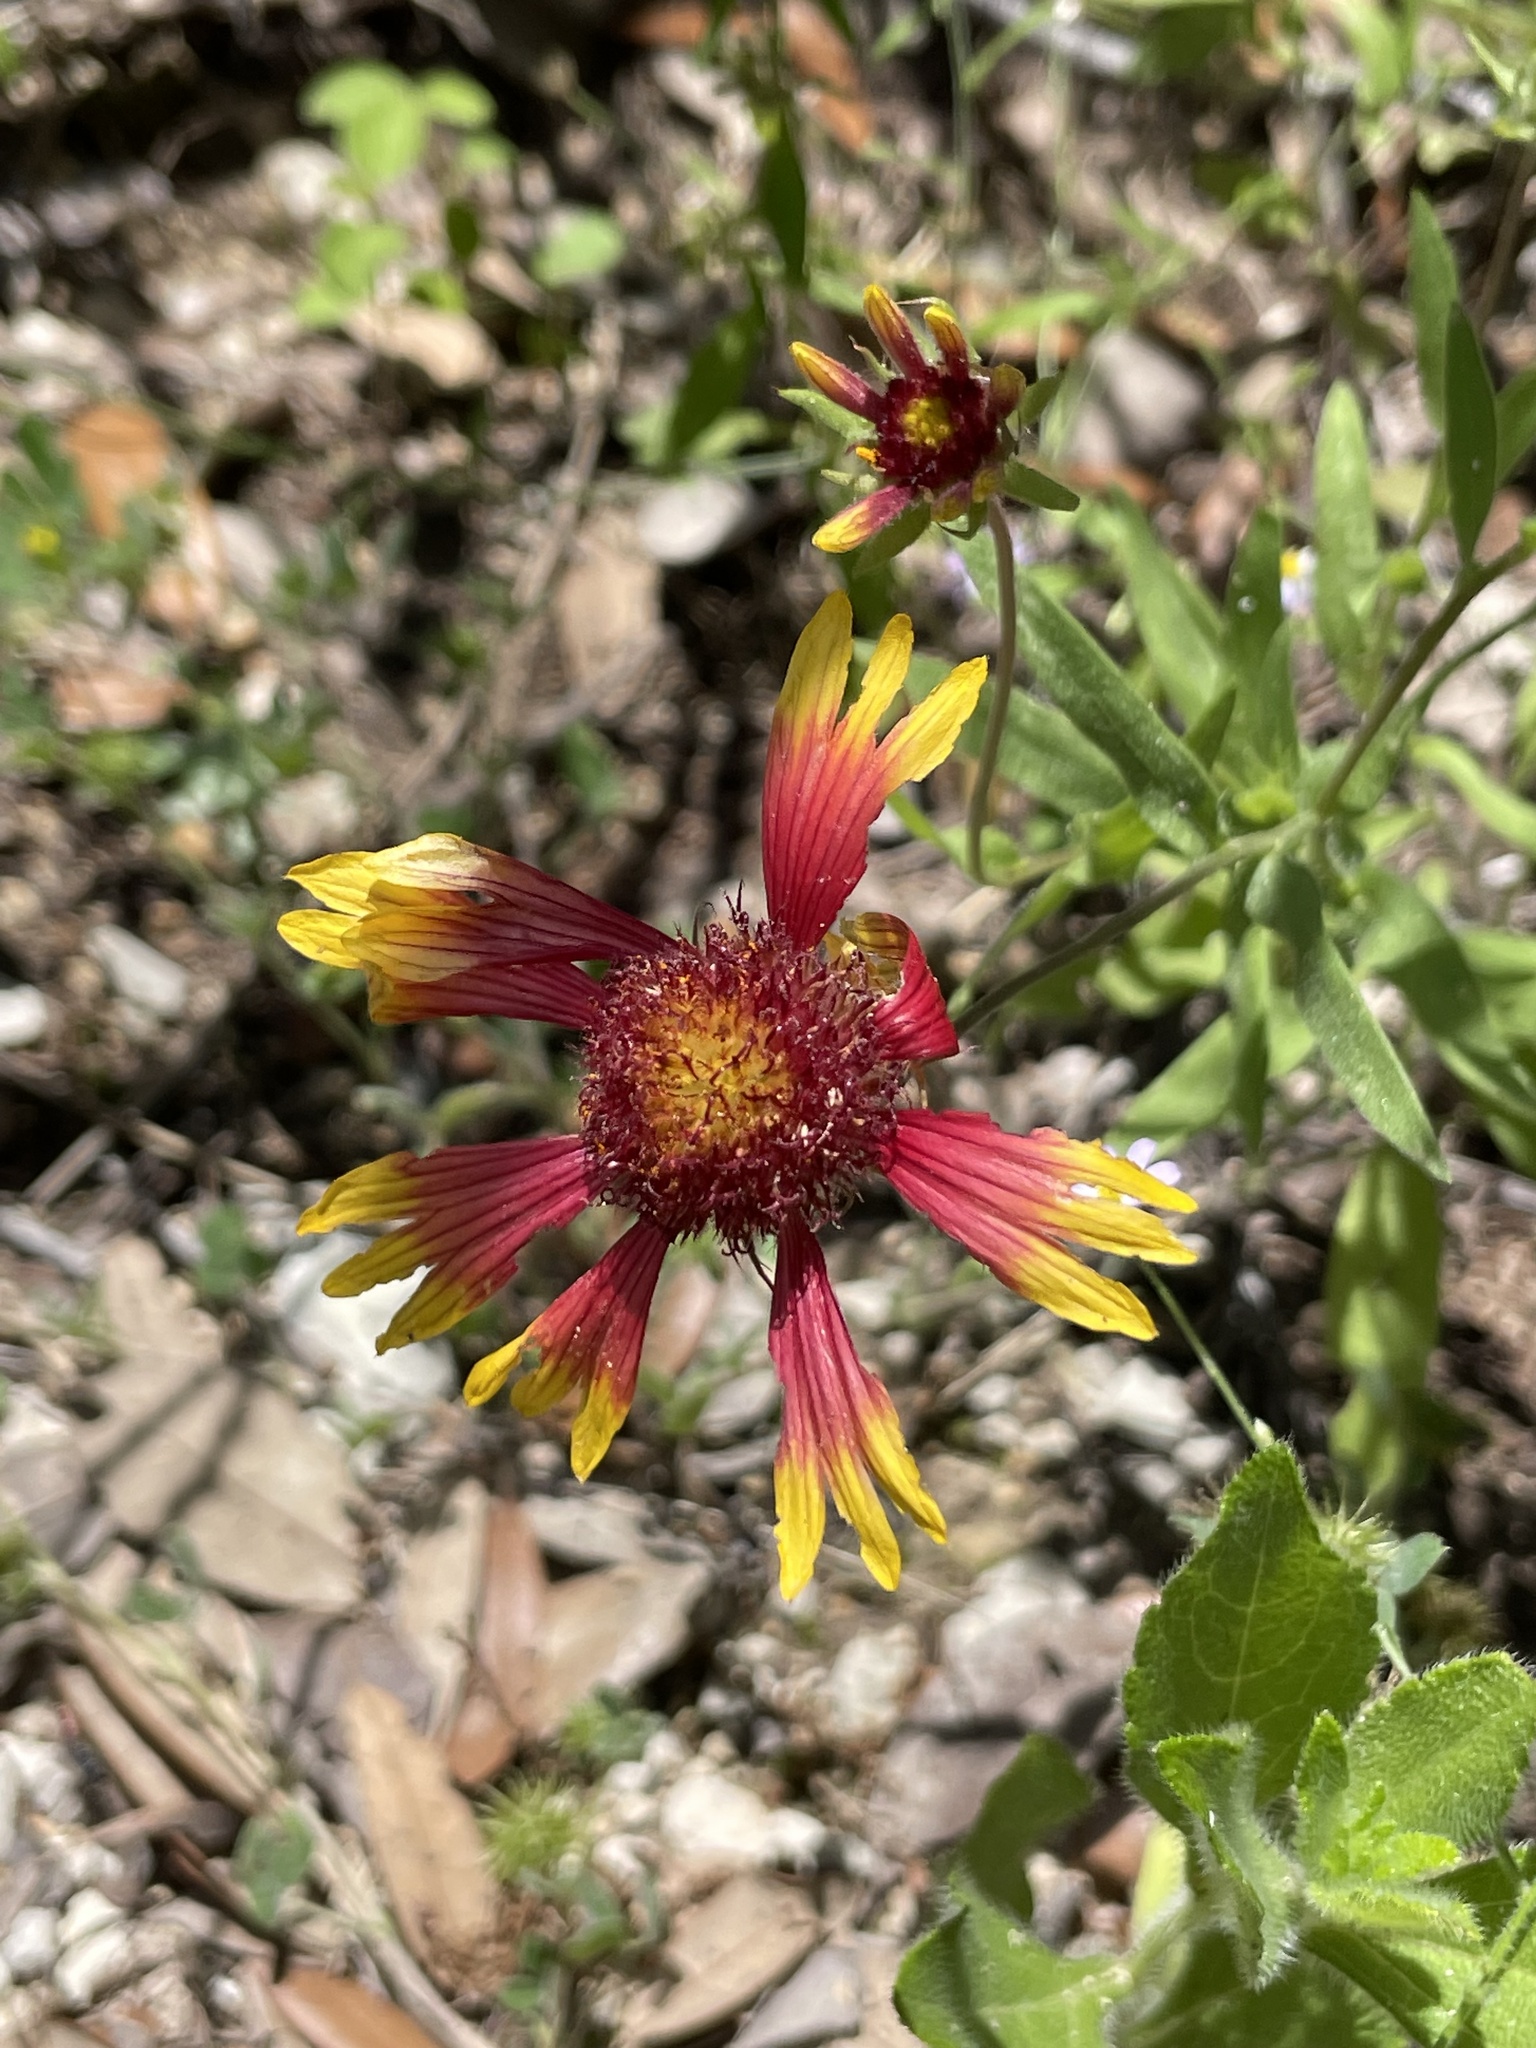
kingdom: Plantae
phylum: Tracheophyta
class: Magnoliopsida
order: Asterales
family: Asteraceae
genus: Gaillardia
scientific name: Gaillardia pulchella
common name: Firewheel
